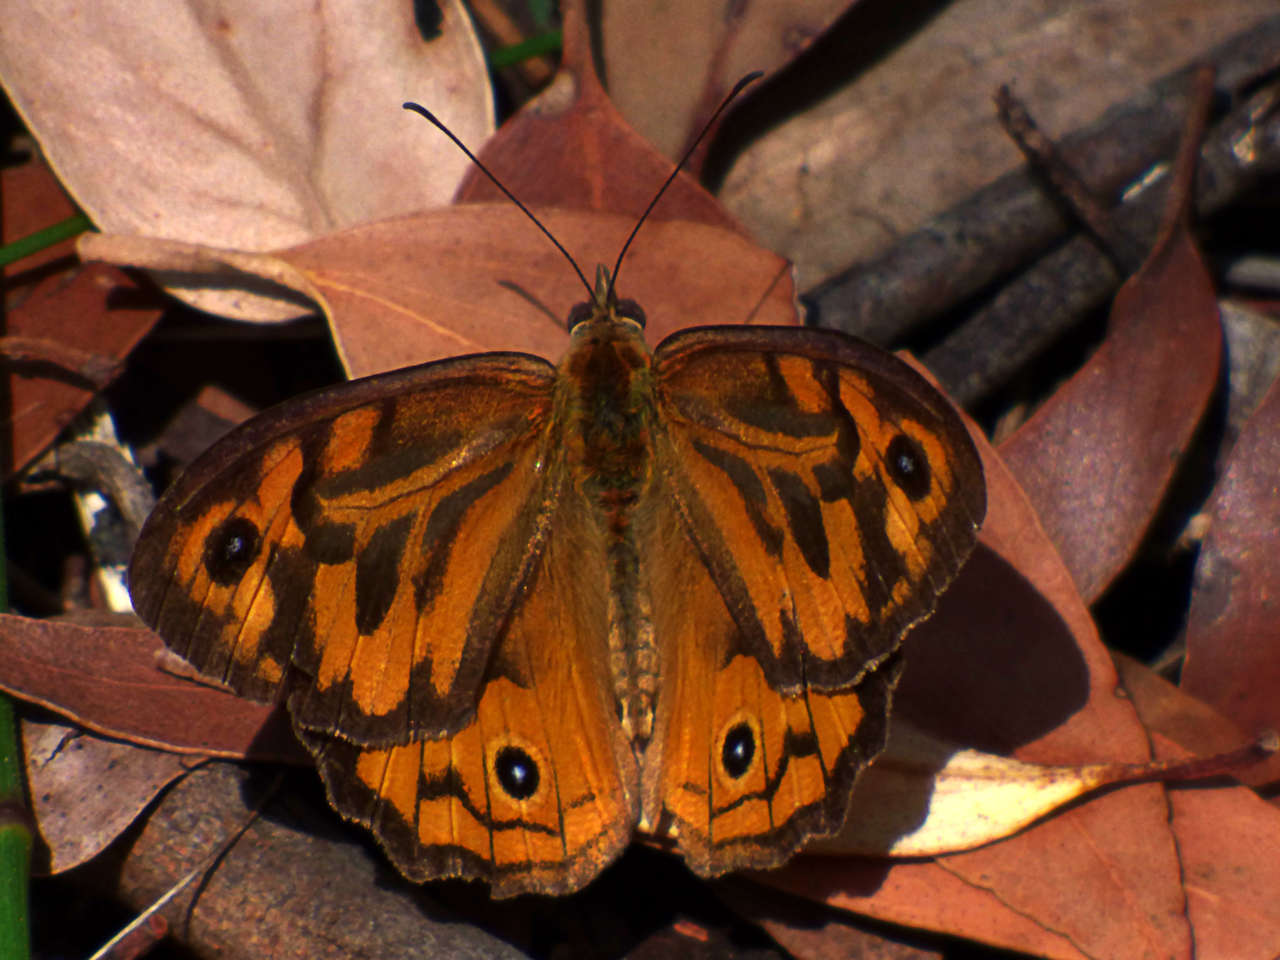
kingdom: Animalia
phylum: Arthropoda
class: Insecta
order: Lepidoptera
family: Nymphalidae
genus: Heteronympha
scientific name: Heteronympha merope
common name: Common brown
